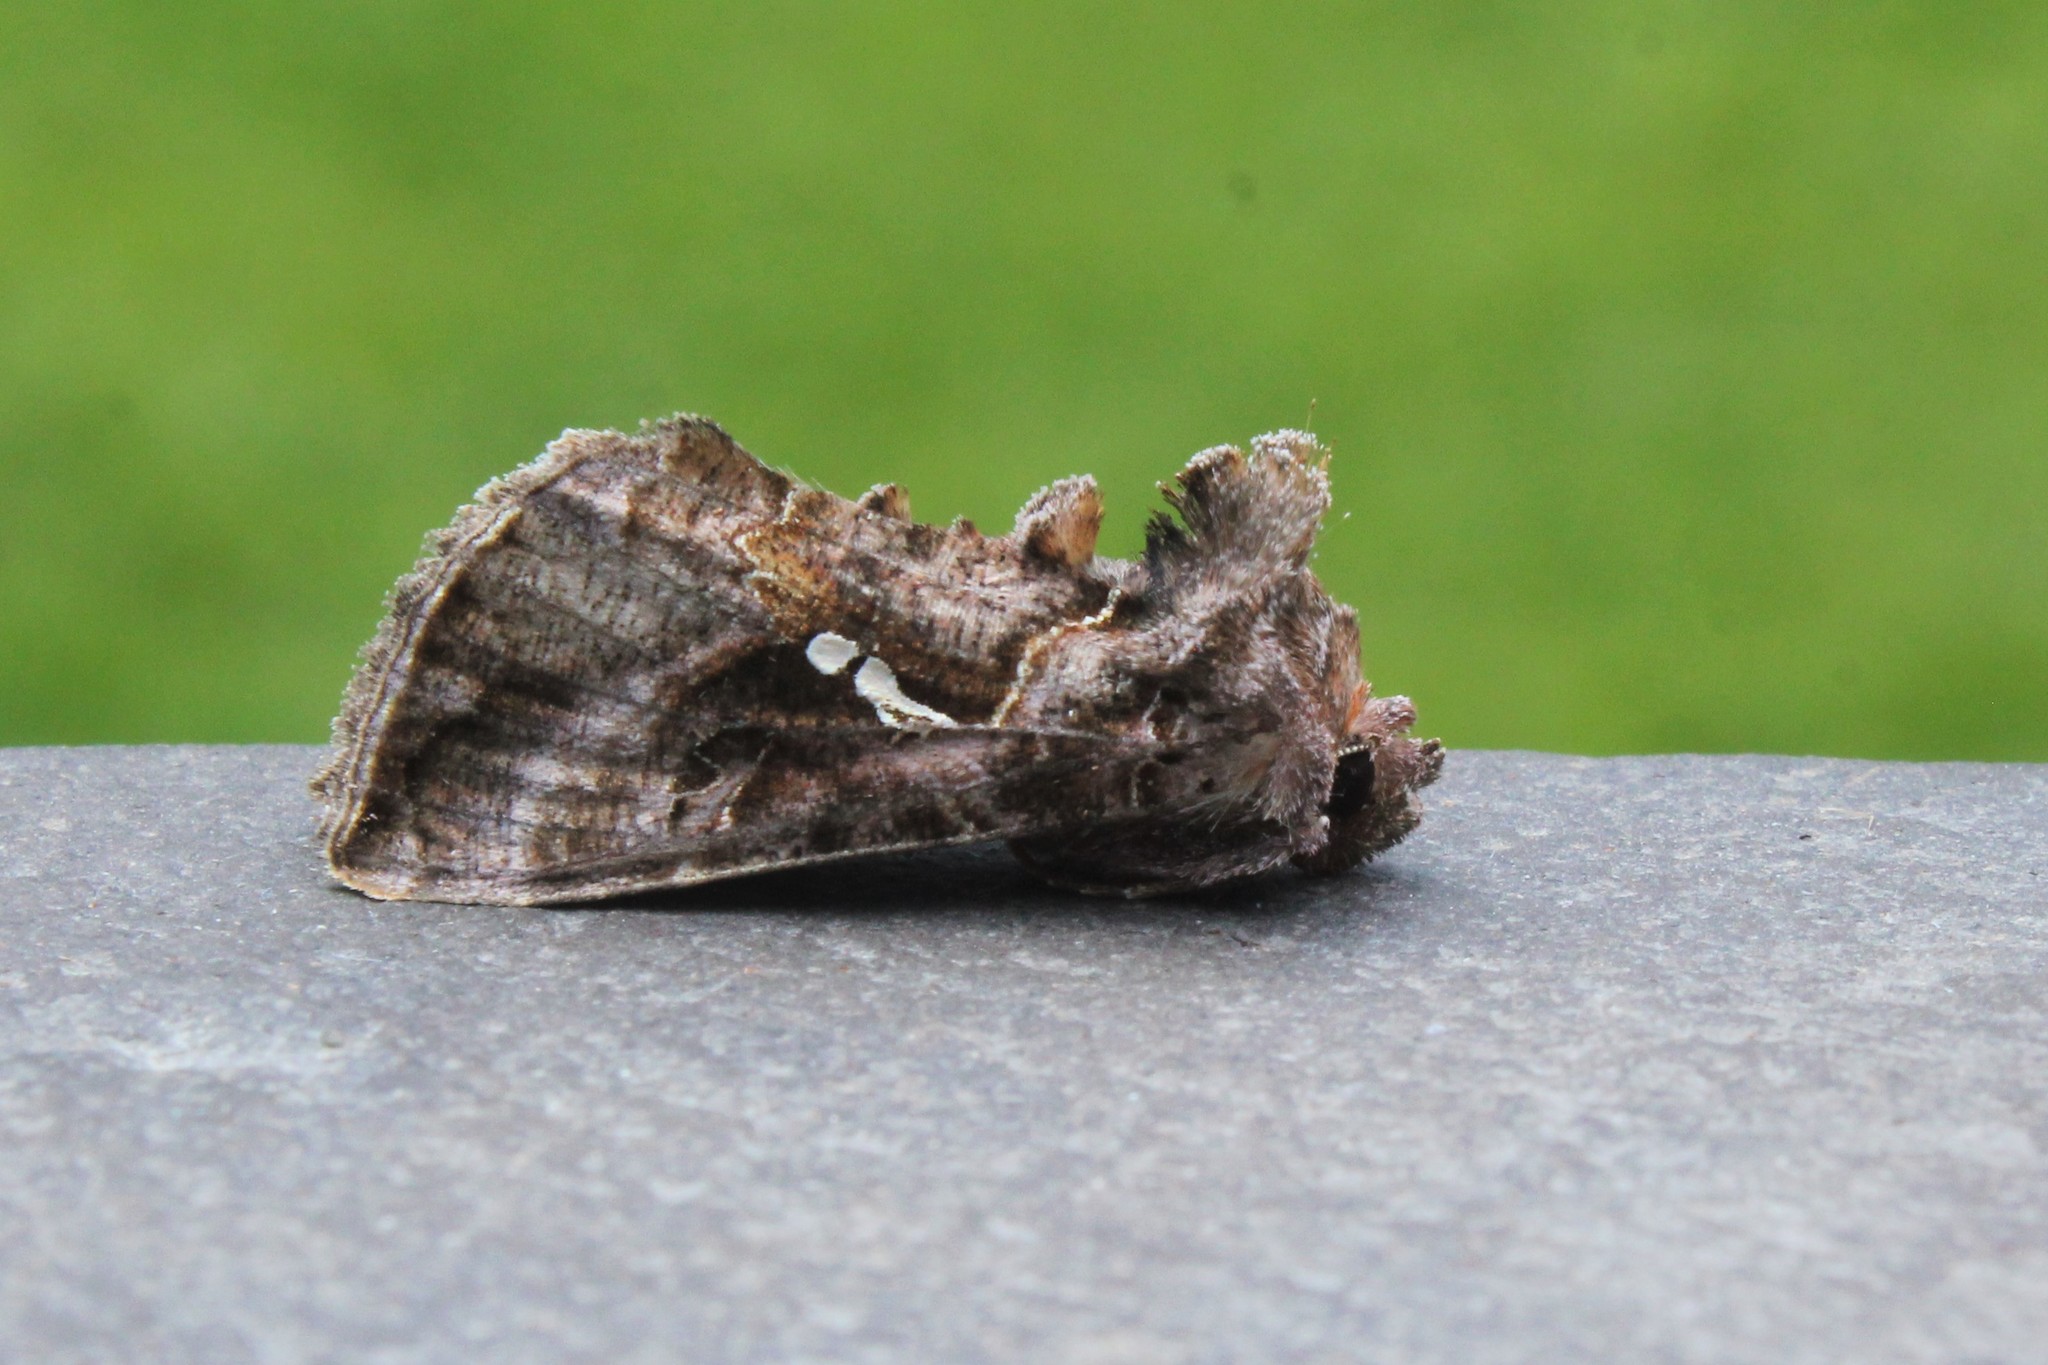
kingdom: Animalia
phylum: Arthropoda
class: Insecta
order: Lepidoptera
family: Noctuidae
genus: Autographa
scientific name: Autographa precationis
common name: Common looper moth
